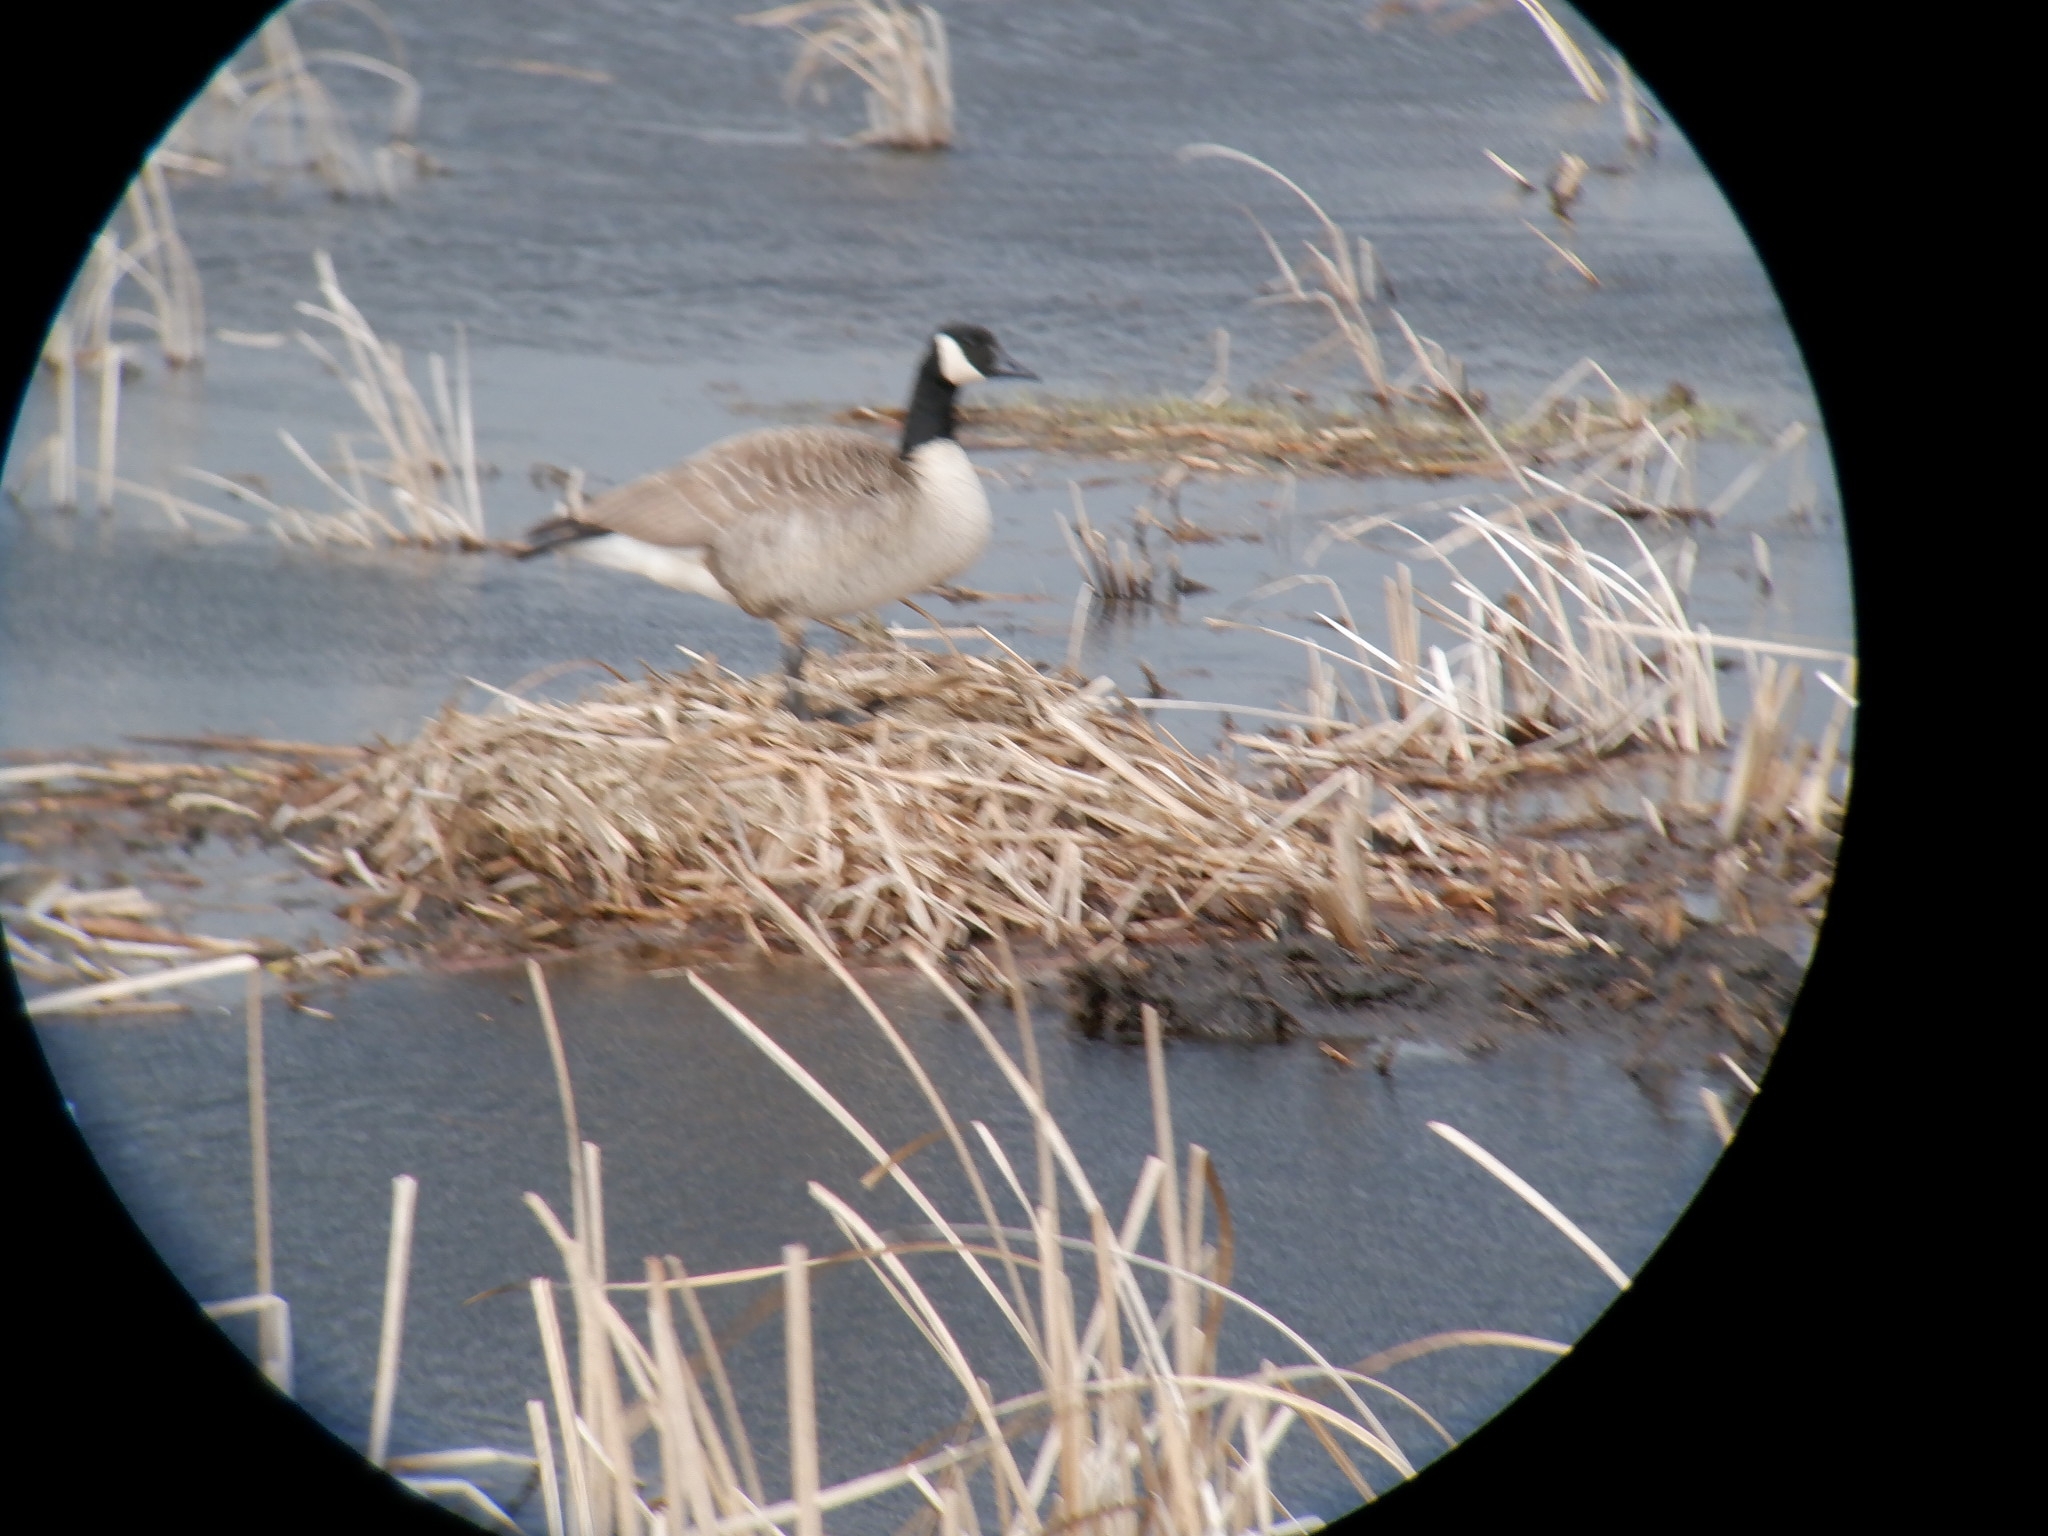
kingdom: Animalia
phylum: Chordata
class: Aves
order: Anseriformes
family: Anatidae
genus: Branta
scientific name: Branta canadensis
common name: Canada goose
